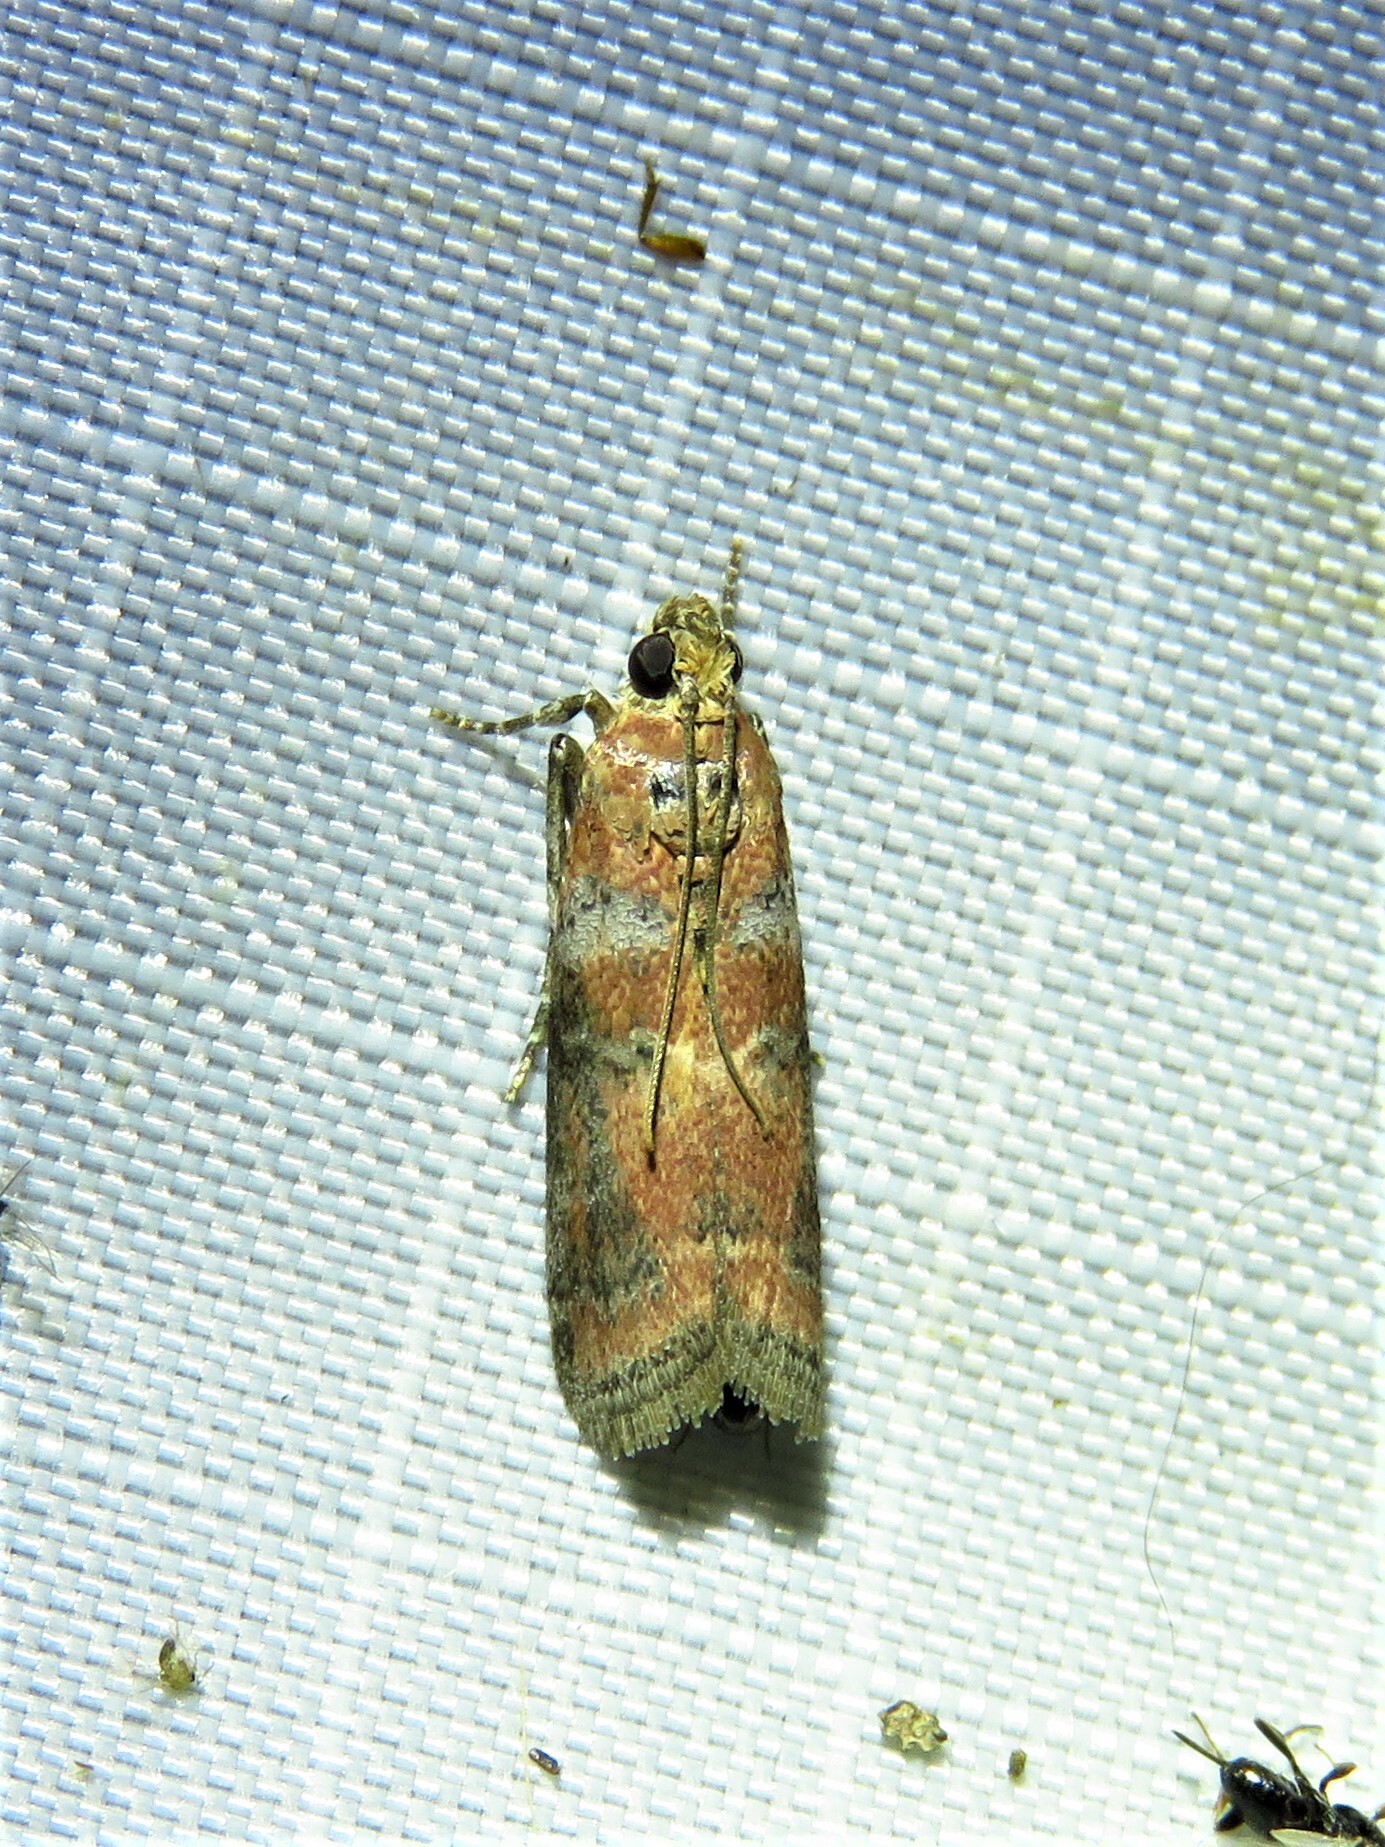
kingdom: Animalia
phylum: Arthropoda
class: Insecta
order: Lepidoptera
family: Pyralidae
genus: Sciota
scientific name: Sciota
